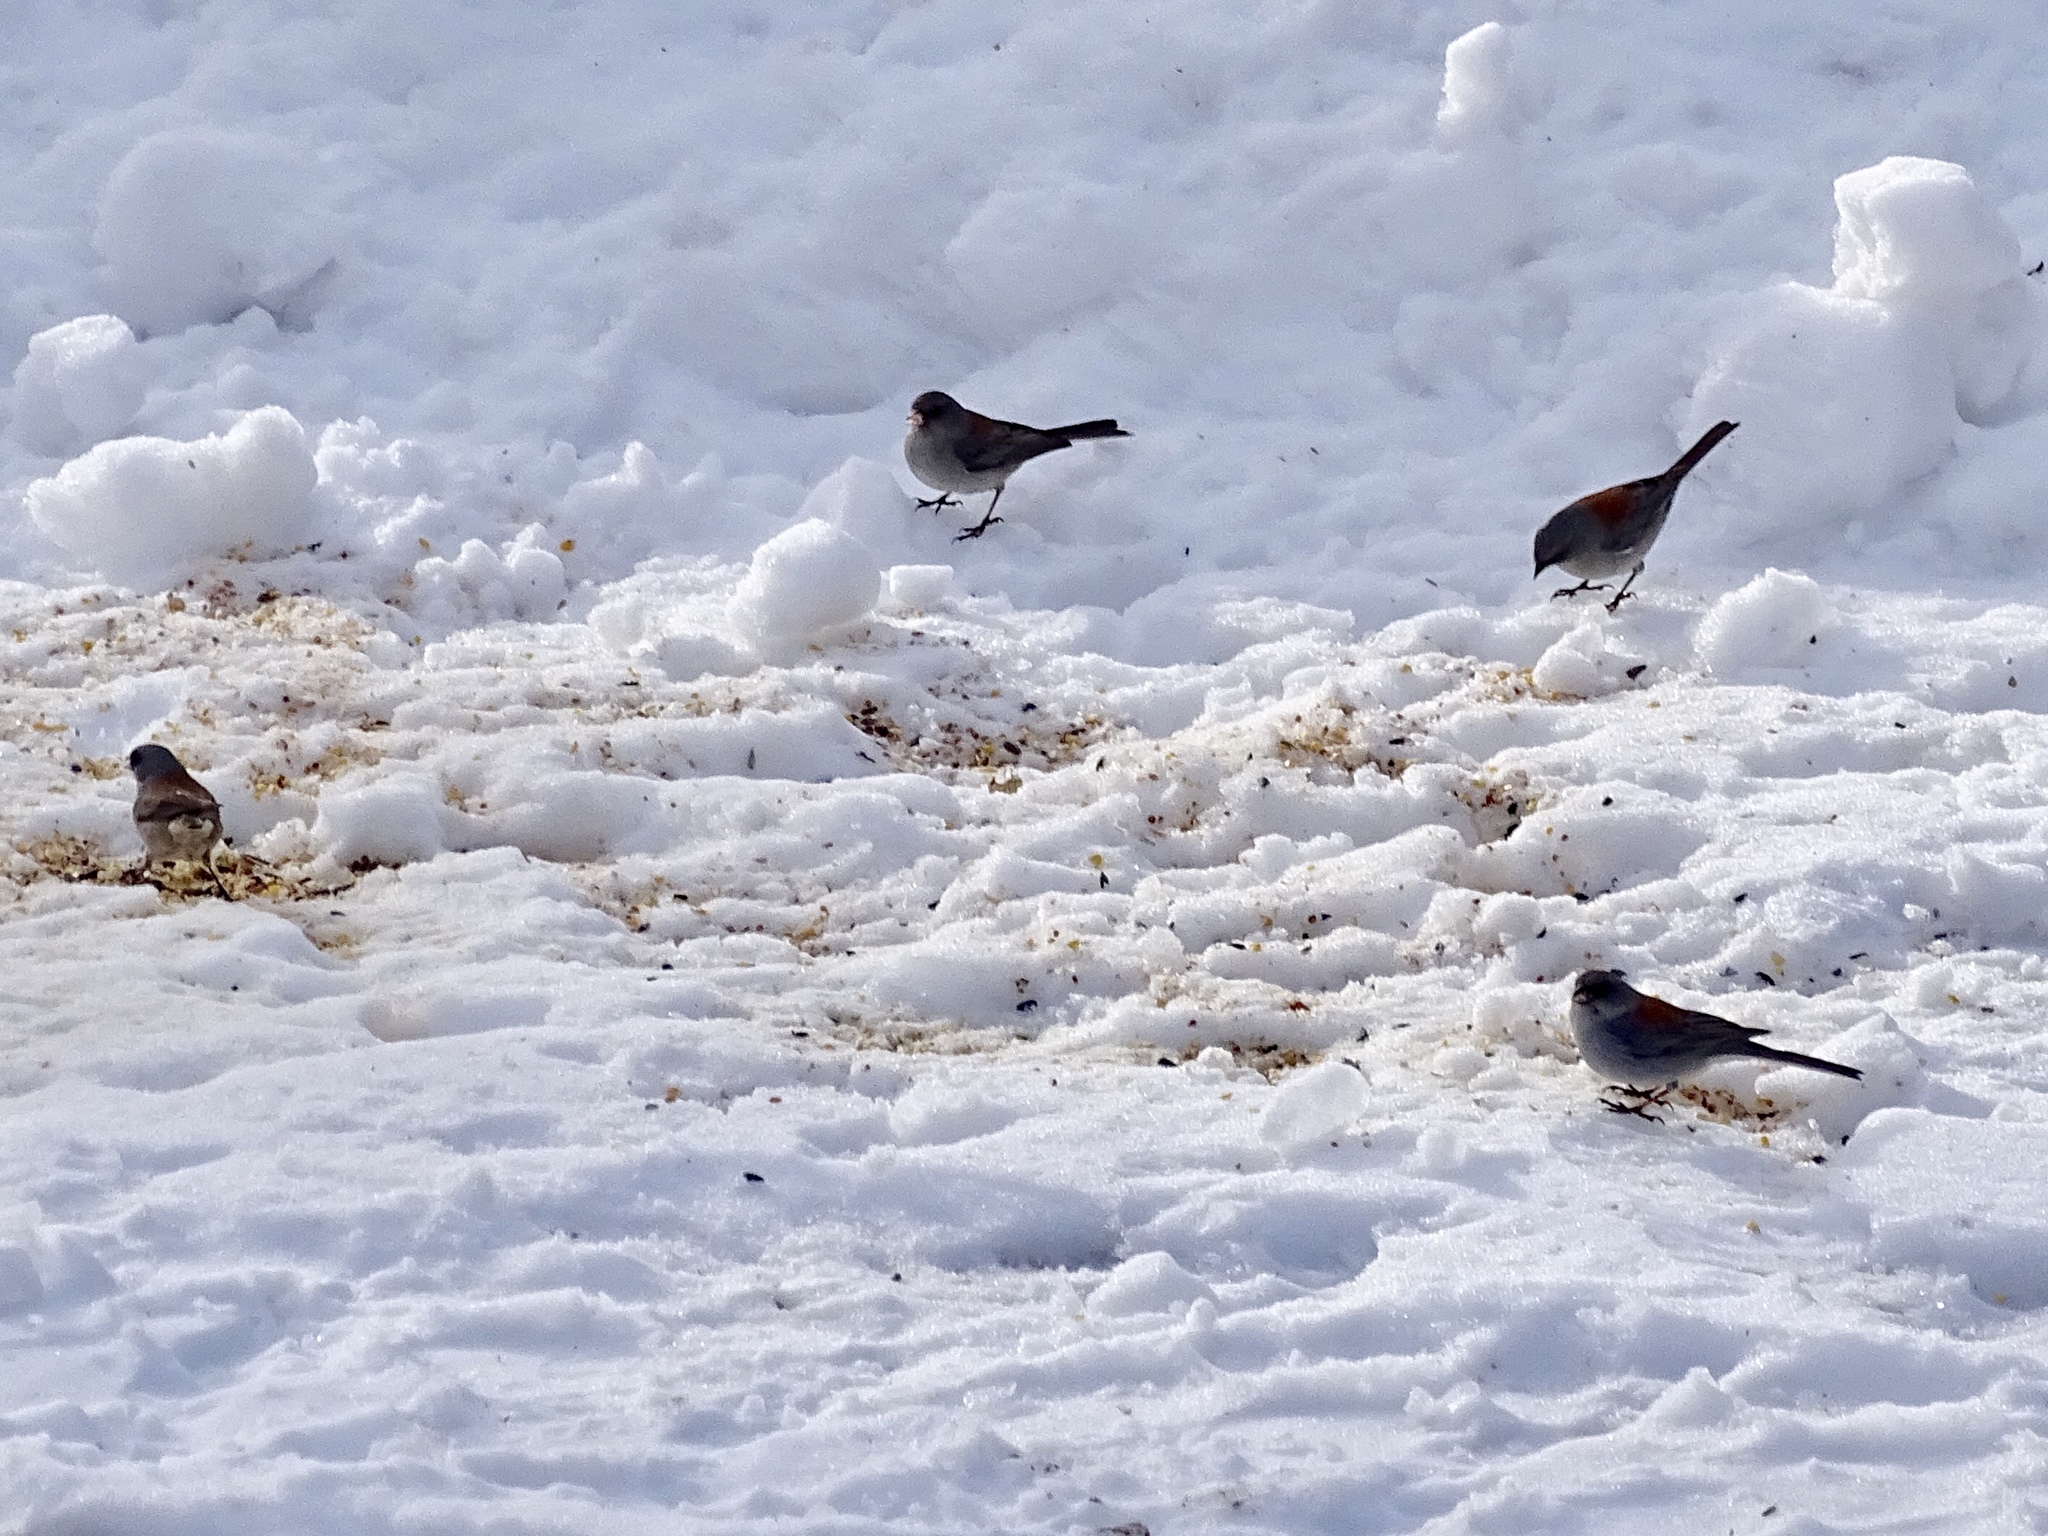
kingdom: Animalia
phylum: Chordata
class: Aves
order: Passeriformes
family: Passerellidae
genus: Junco
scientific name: Junco hyemalis
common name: Dark-eyed junco
